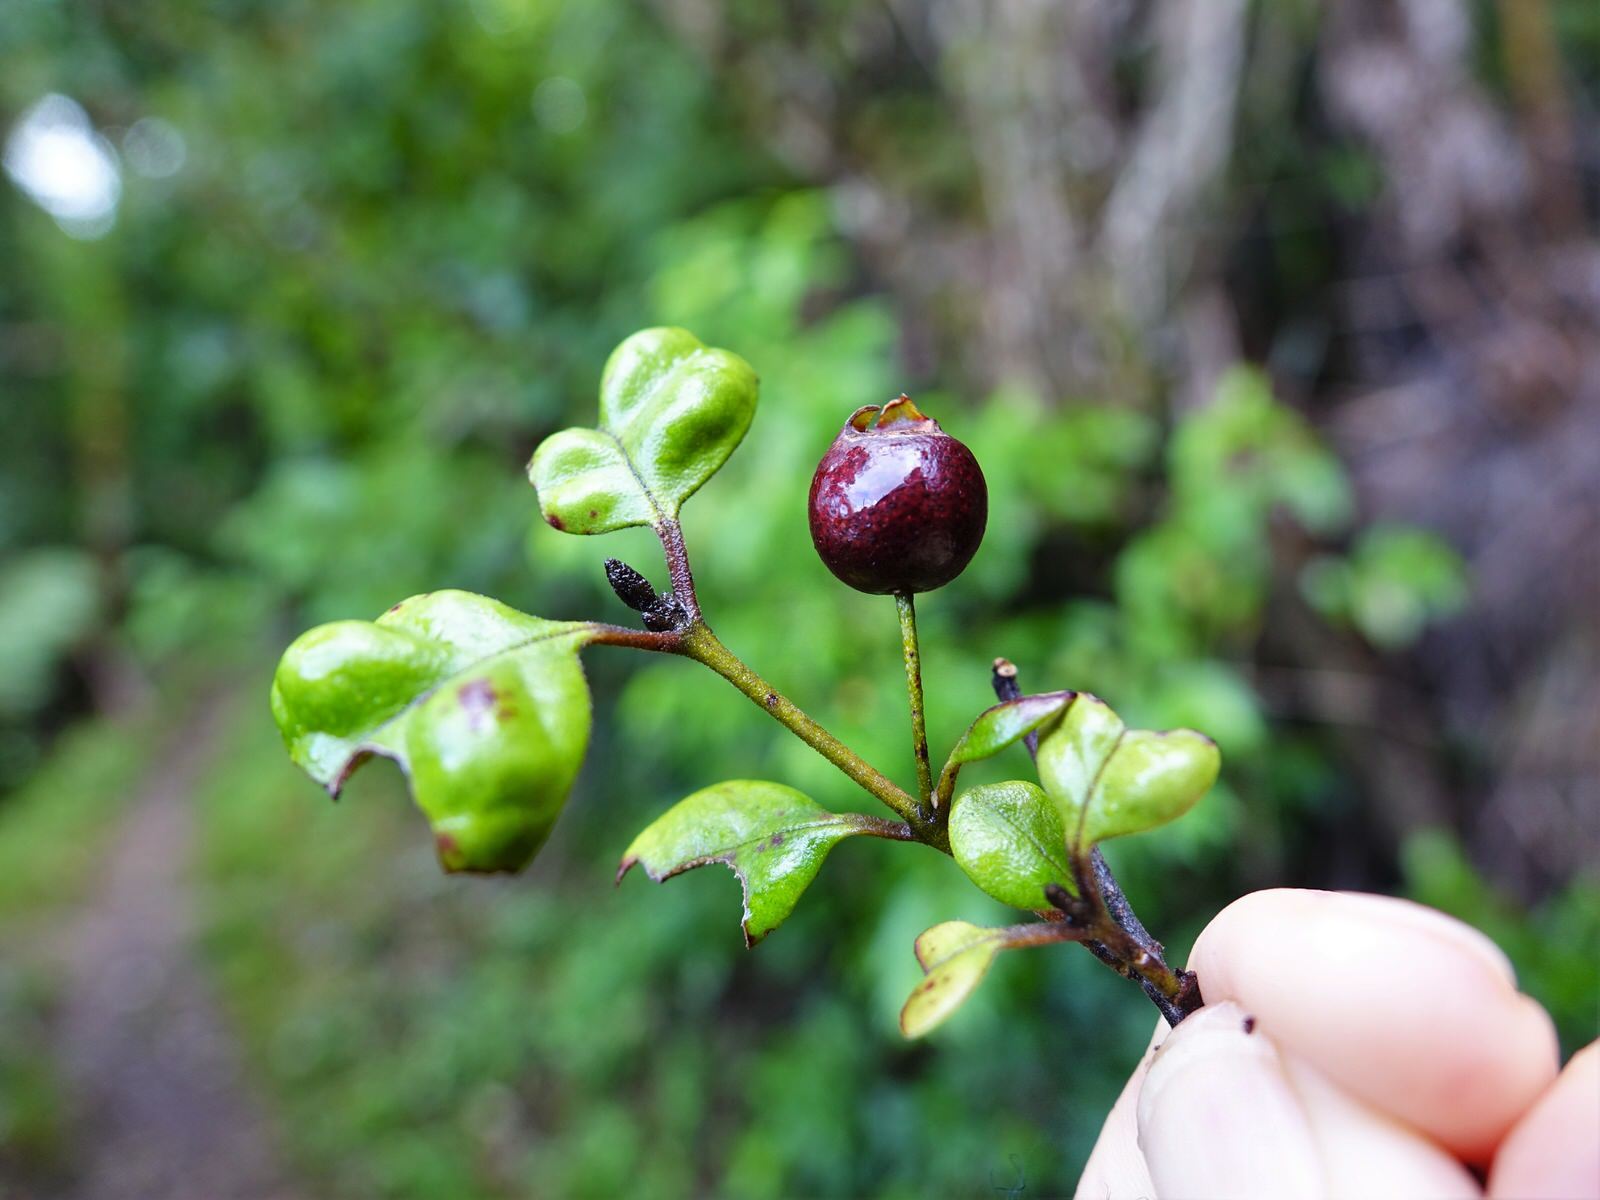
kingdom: Plantae
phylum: Tracheophyta
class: Magnoliopsida
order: Myrtales
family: Myrtaceae
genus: Lophomyrtus
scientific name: Lophomyrtus bullata
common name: Rama rama
